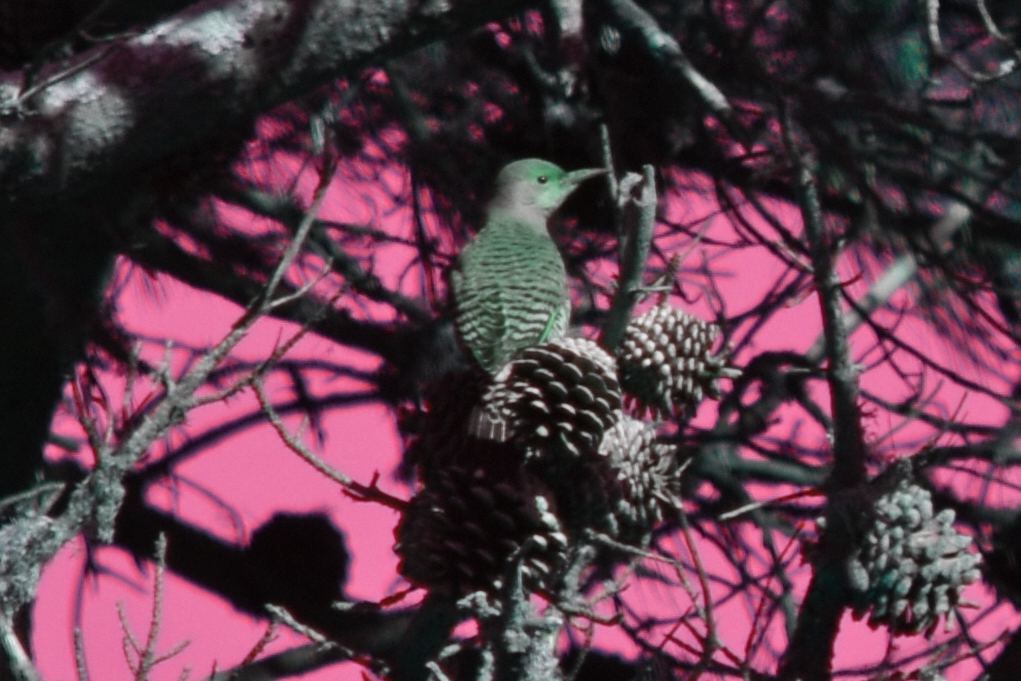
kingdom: Animalia
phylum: Chordata
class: Aves
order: Piciformes
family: Picidae
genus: Colaptes
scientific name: Colaptes auratus
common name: Northern flicker
